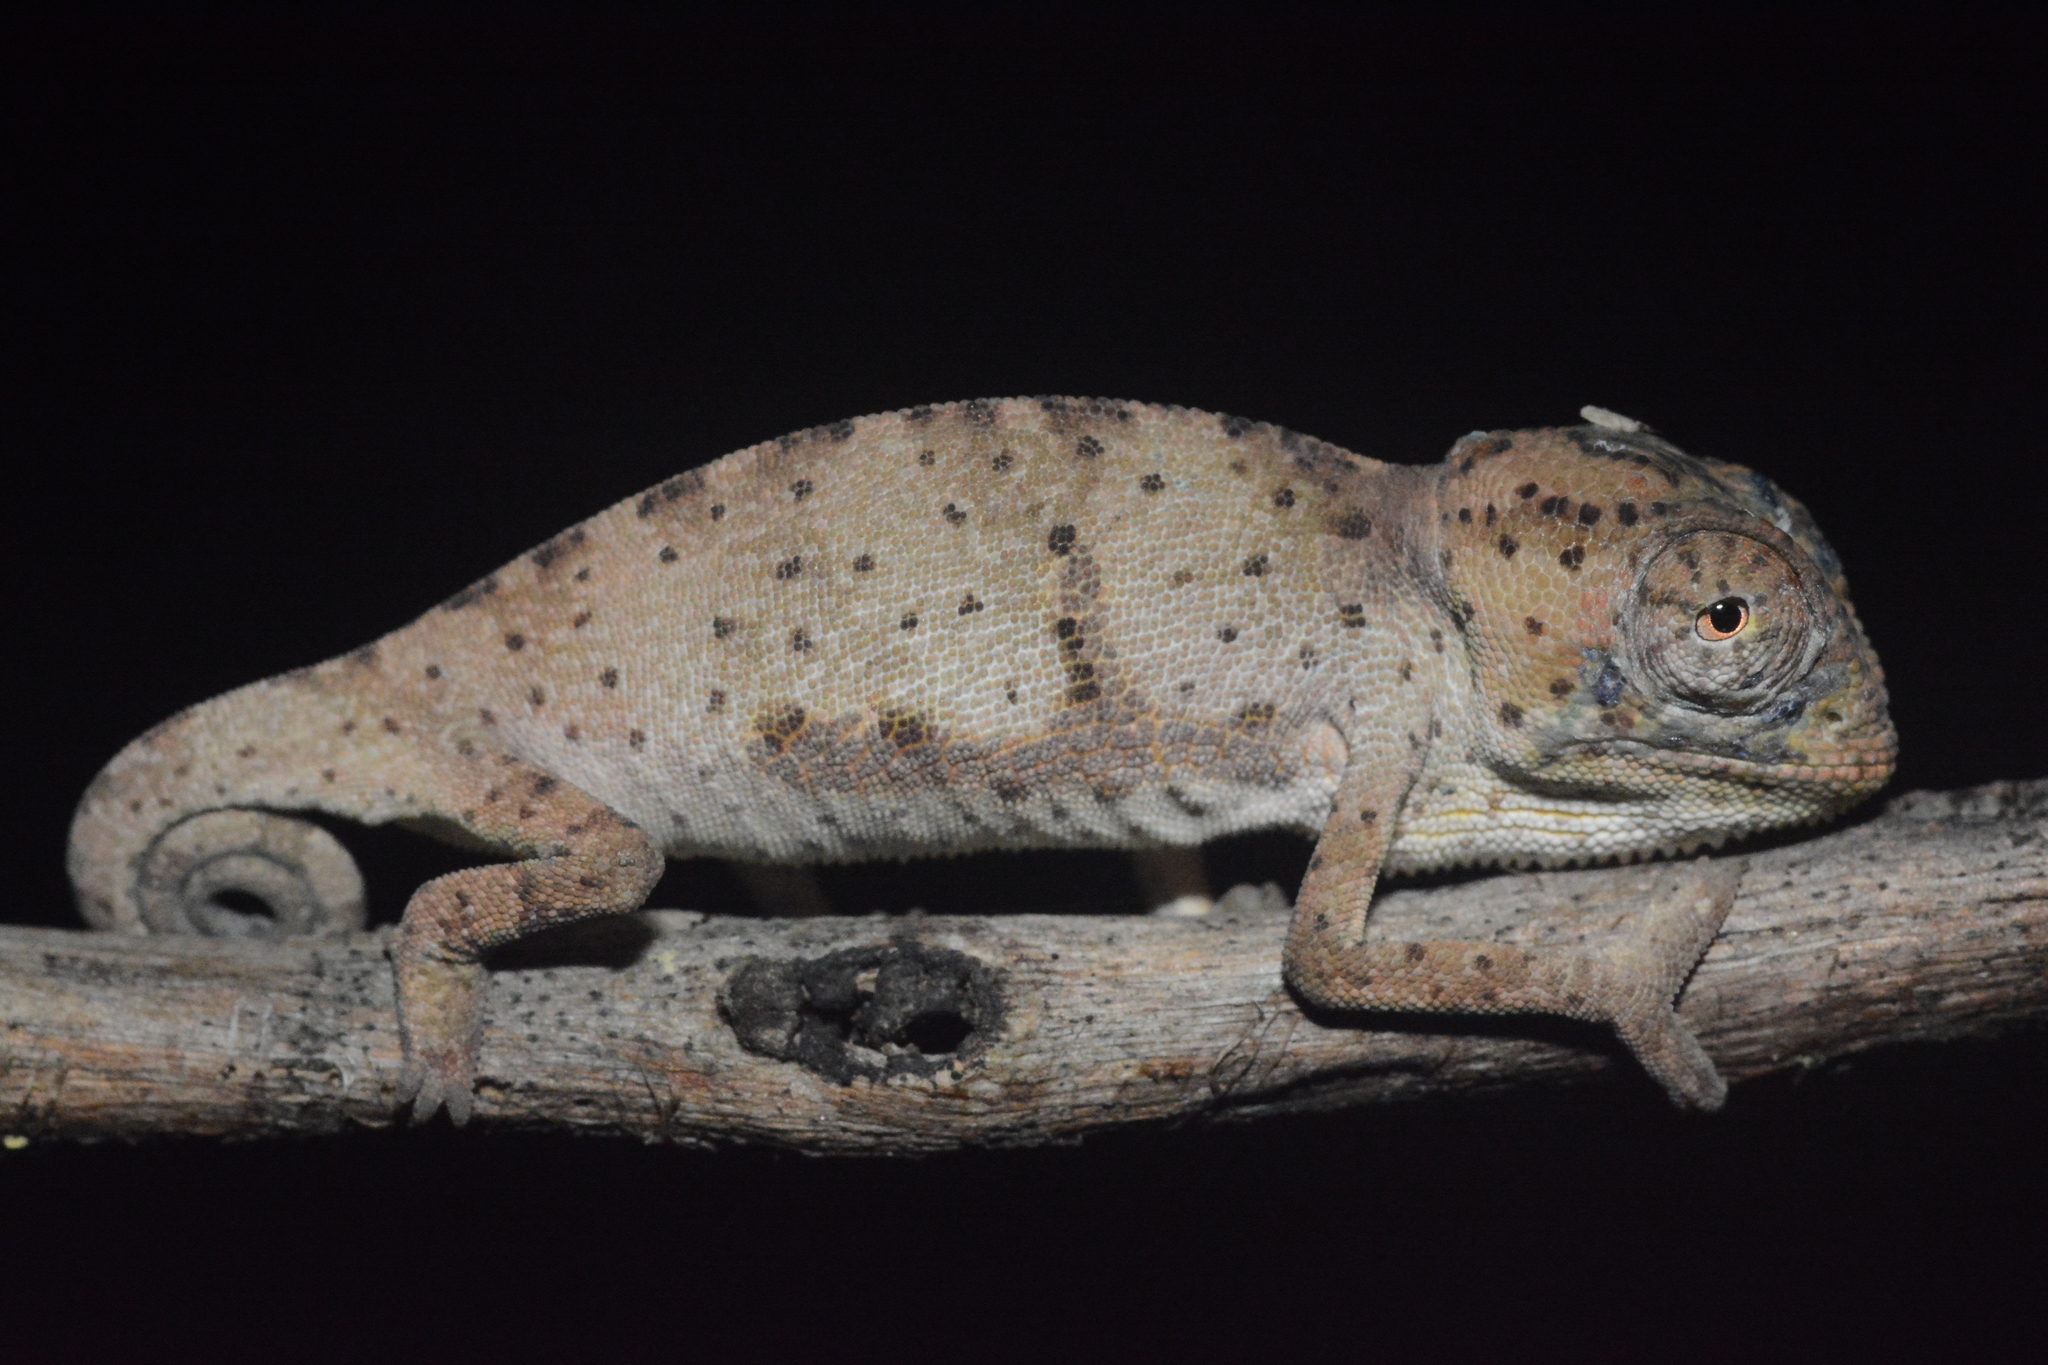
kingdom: Animalia
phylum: Chordata
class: Squamata
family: Chamaeleonidae
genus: Chamaeleo
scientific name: Chamaeleo dilepis
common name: Flapneck chameleon
